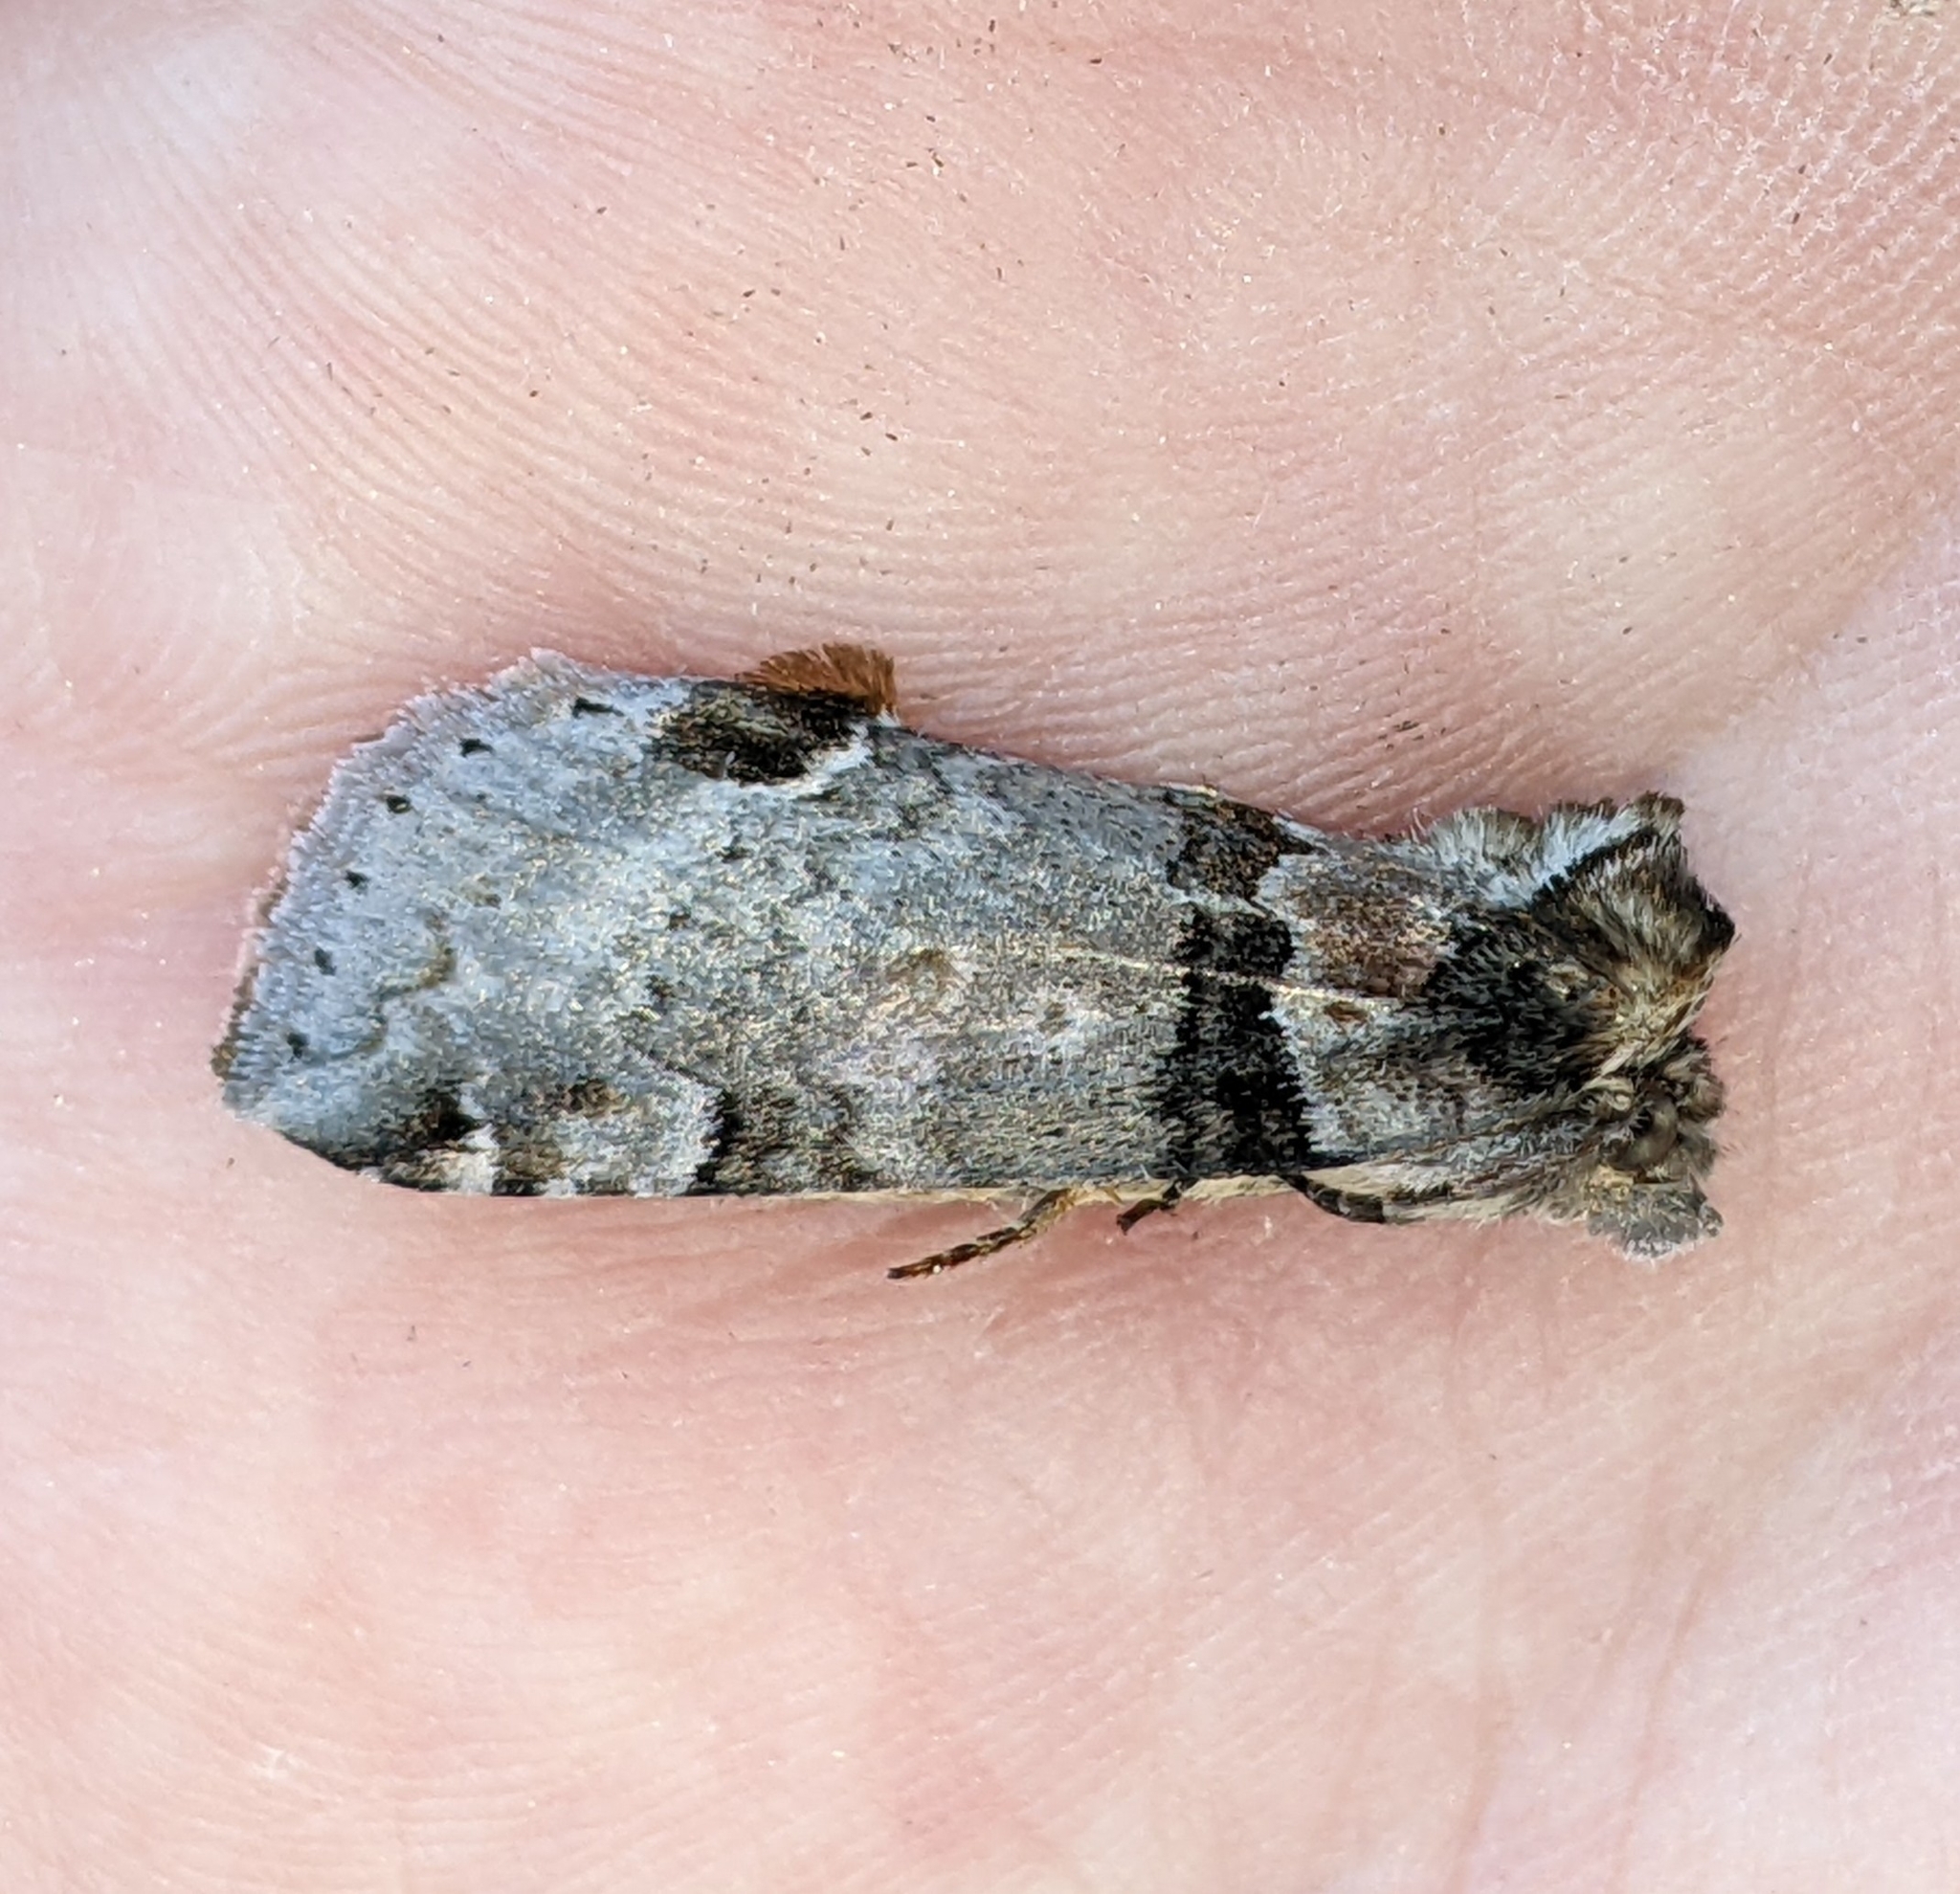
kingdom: Animalia
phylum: Arthropoda
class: Insecta
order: Lepidoptera
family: Drepanidae
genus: Pseudothyatira
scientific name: Pseudothyatira cymatophoroides
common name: Tufted thyatirid moth
